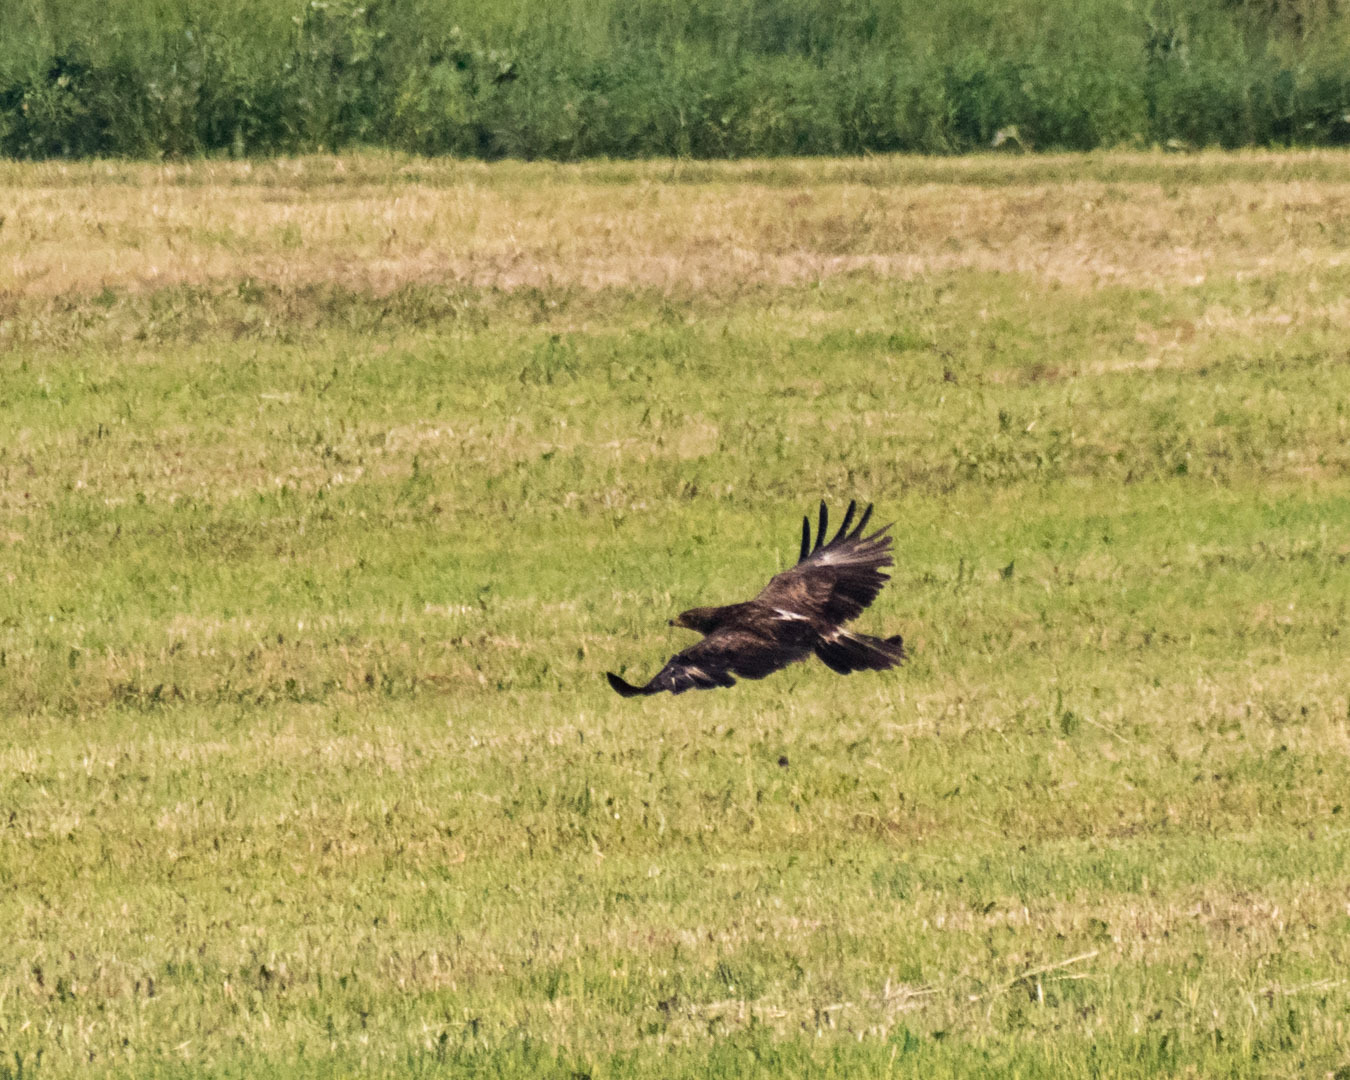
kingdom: Animalia
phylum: Chordata
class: Aves
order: Accipitriformes
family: Accipitridae
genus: Aquila
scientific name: Aquila pomarina
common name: Lesser spotted eagle
